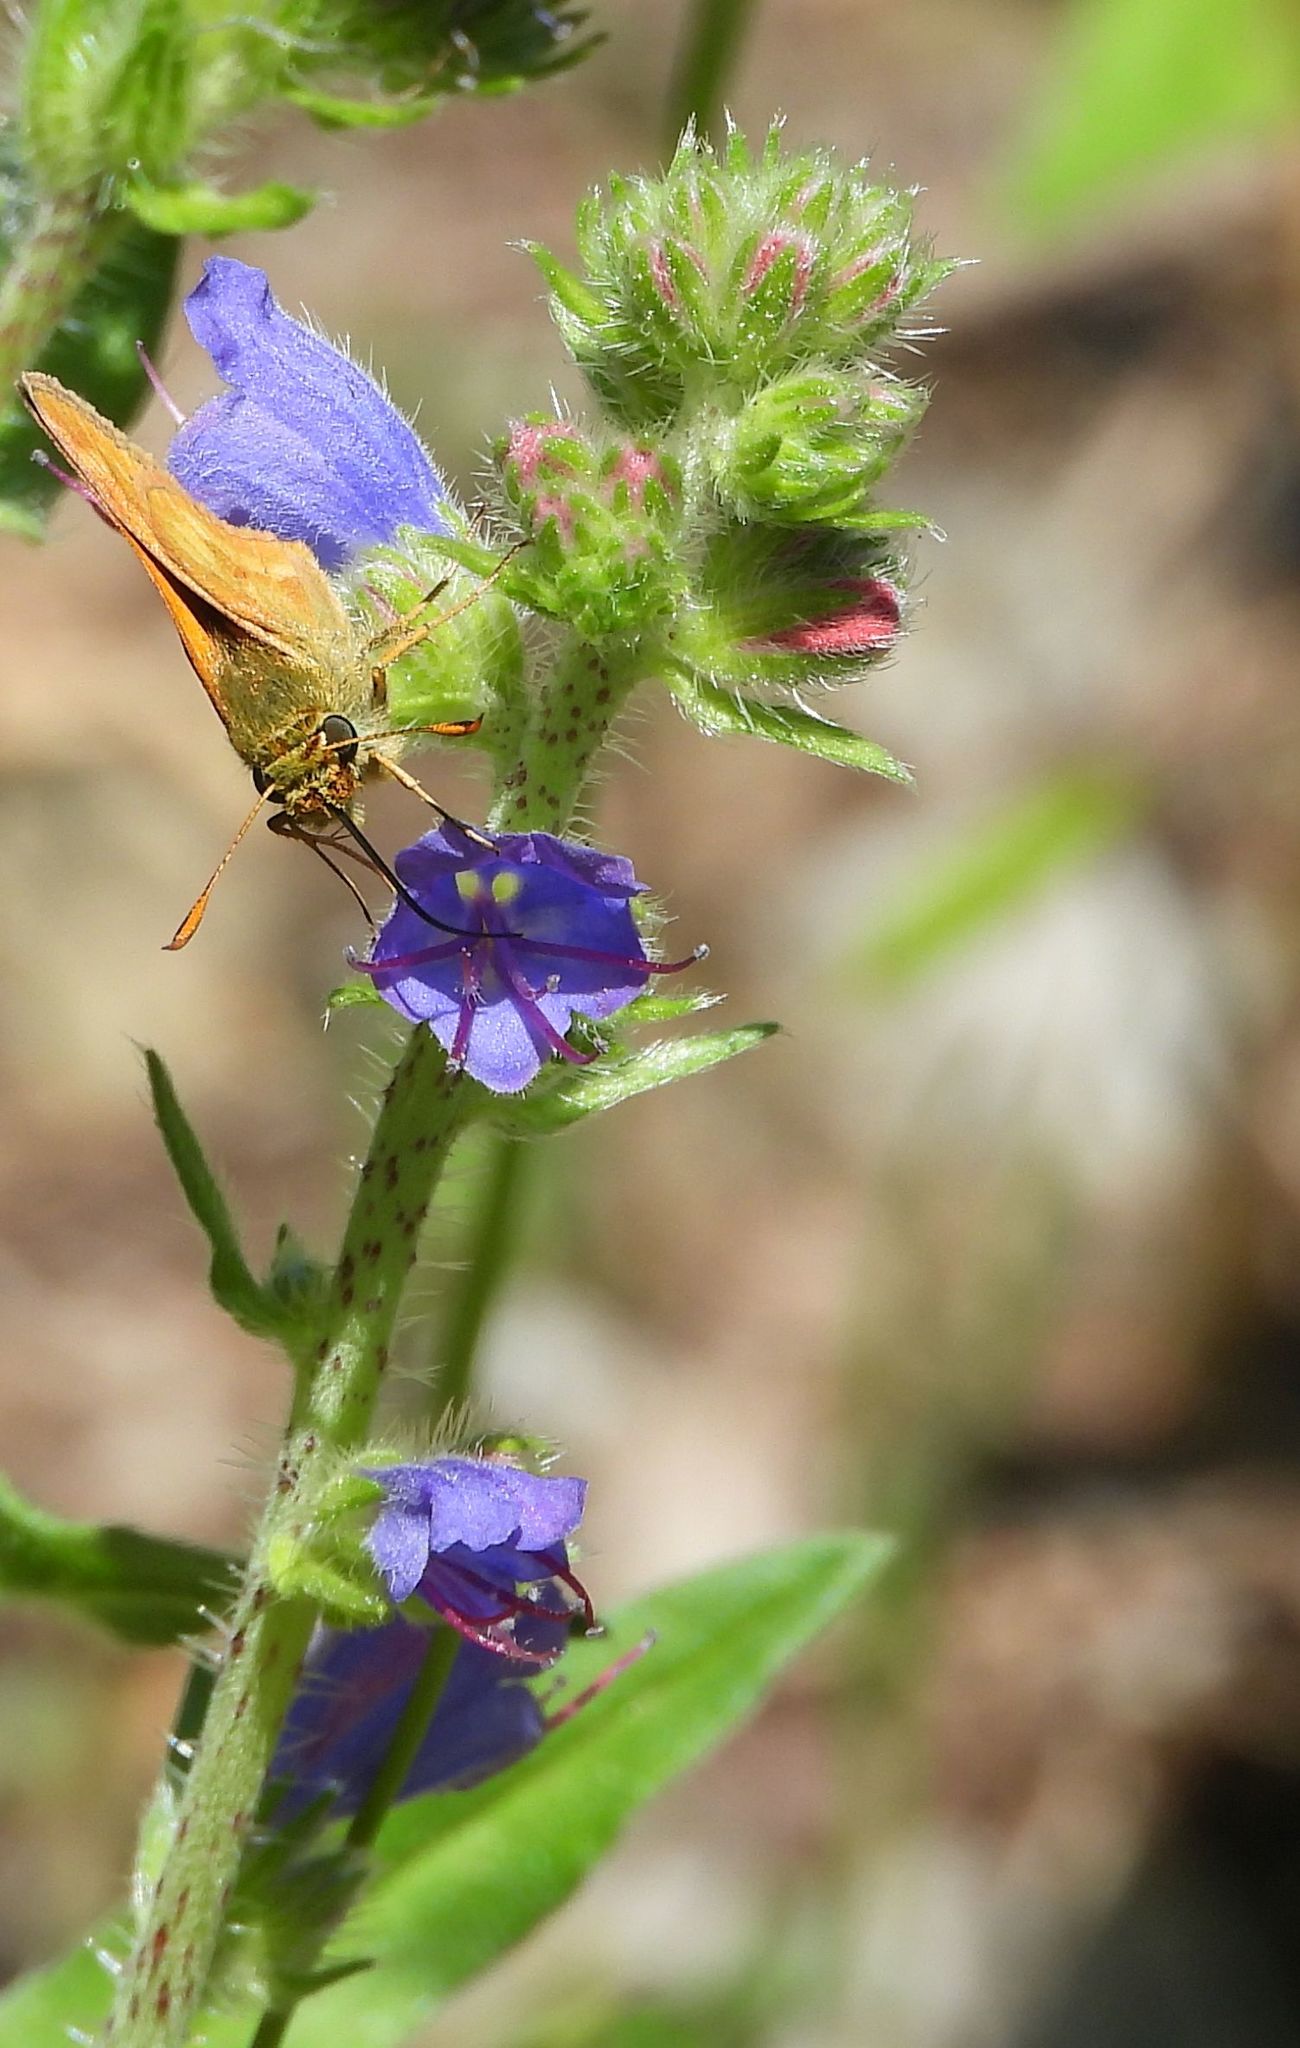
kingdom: Plantae
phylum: Tracheophyta
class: Magnoliopsida
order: Boraginales
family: Boraginaceae
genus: Echium
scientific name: Echium vulgare
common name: Common viper's bugloss
